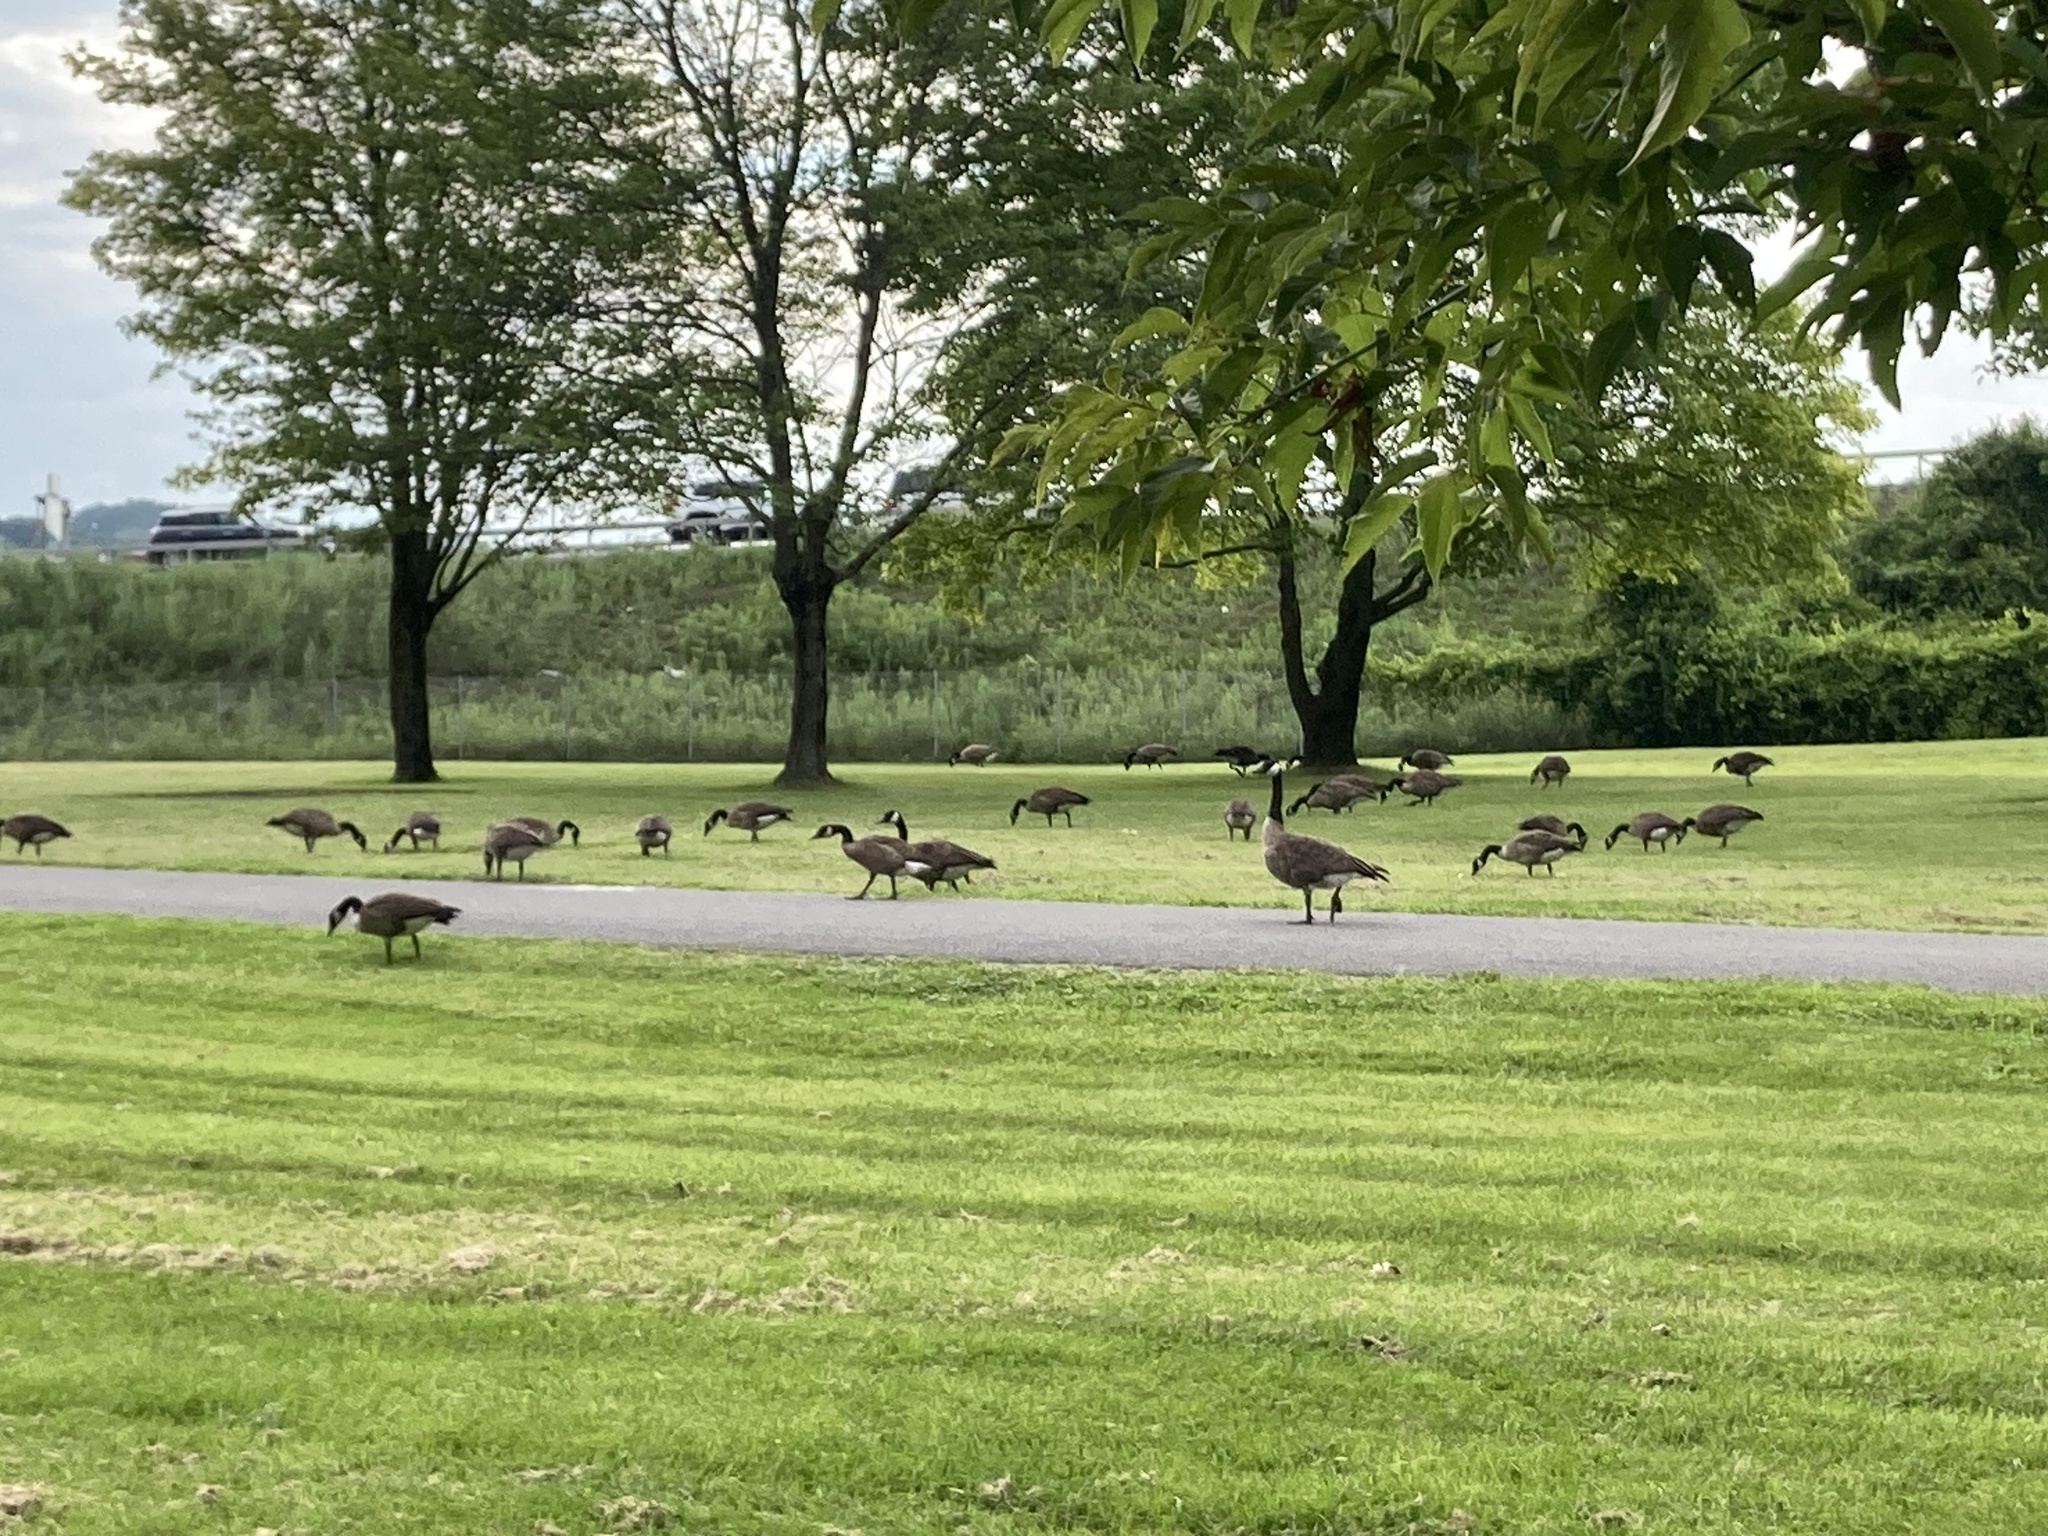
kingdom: Animalia
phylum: Chordata
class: Aves
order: Anseriformes
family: Anatidae
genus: Branta
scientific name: Branta canadensis
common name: Canada goose
